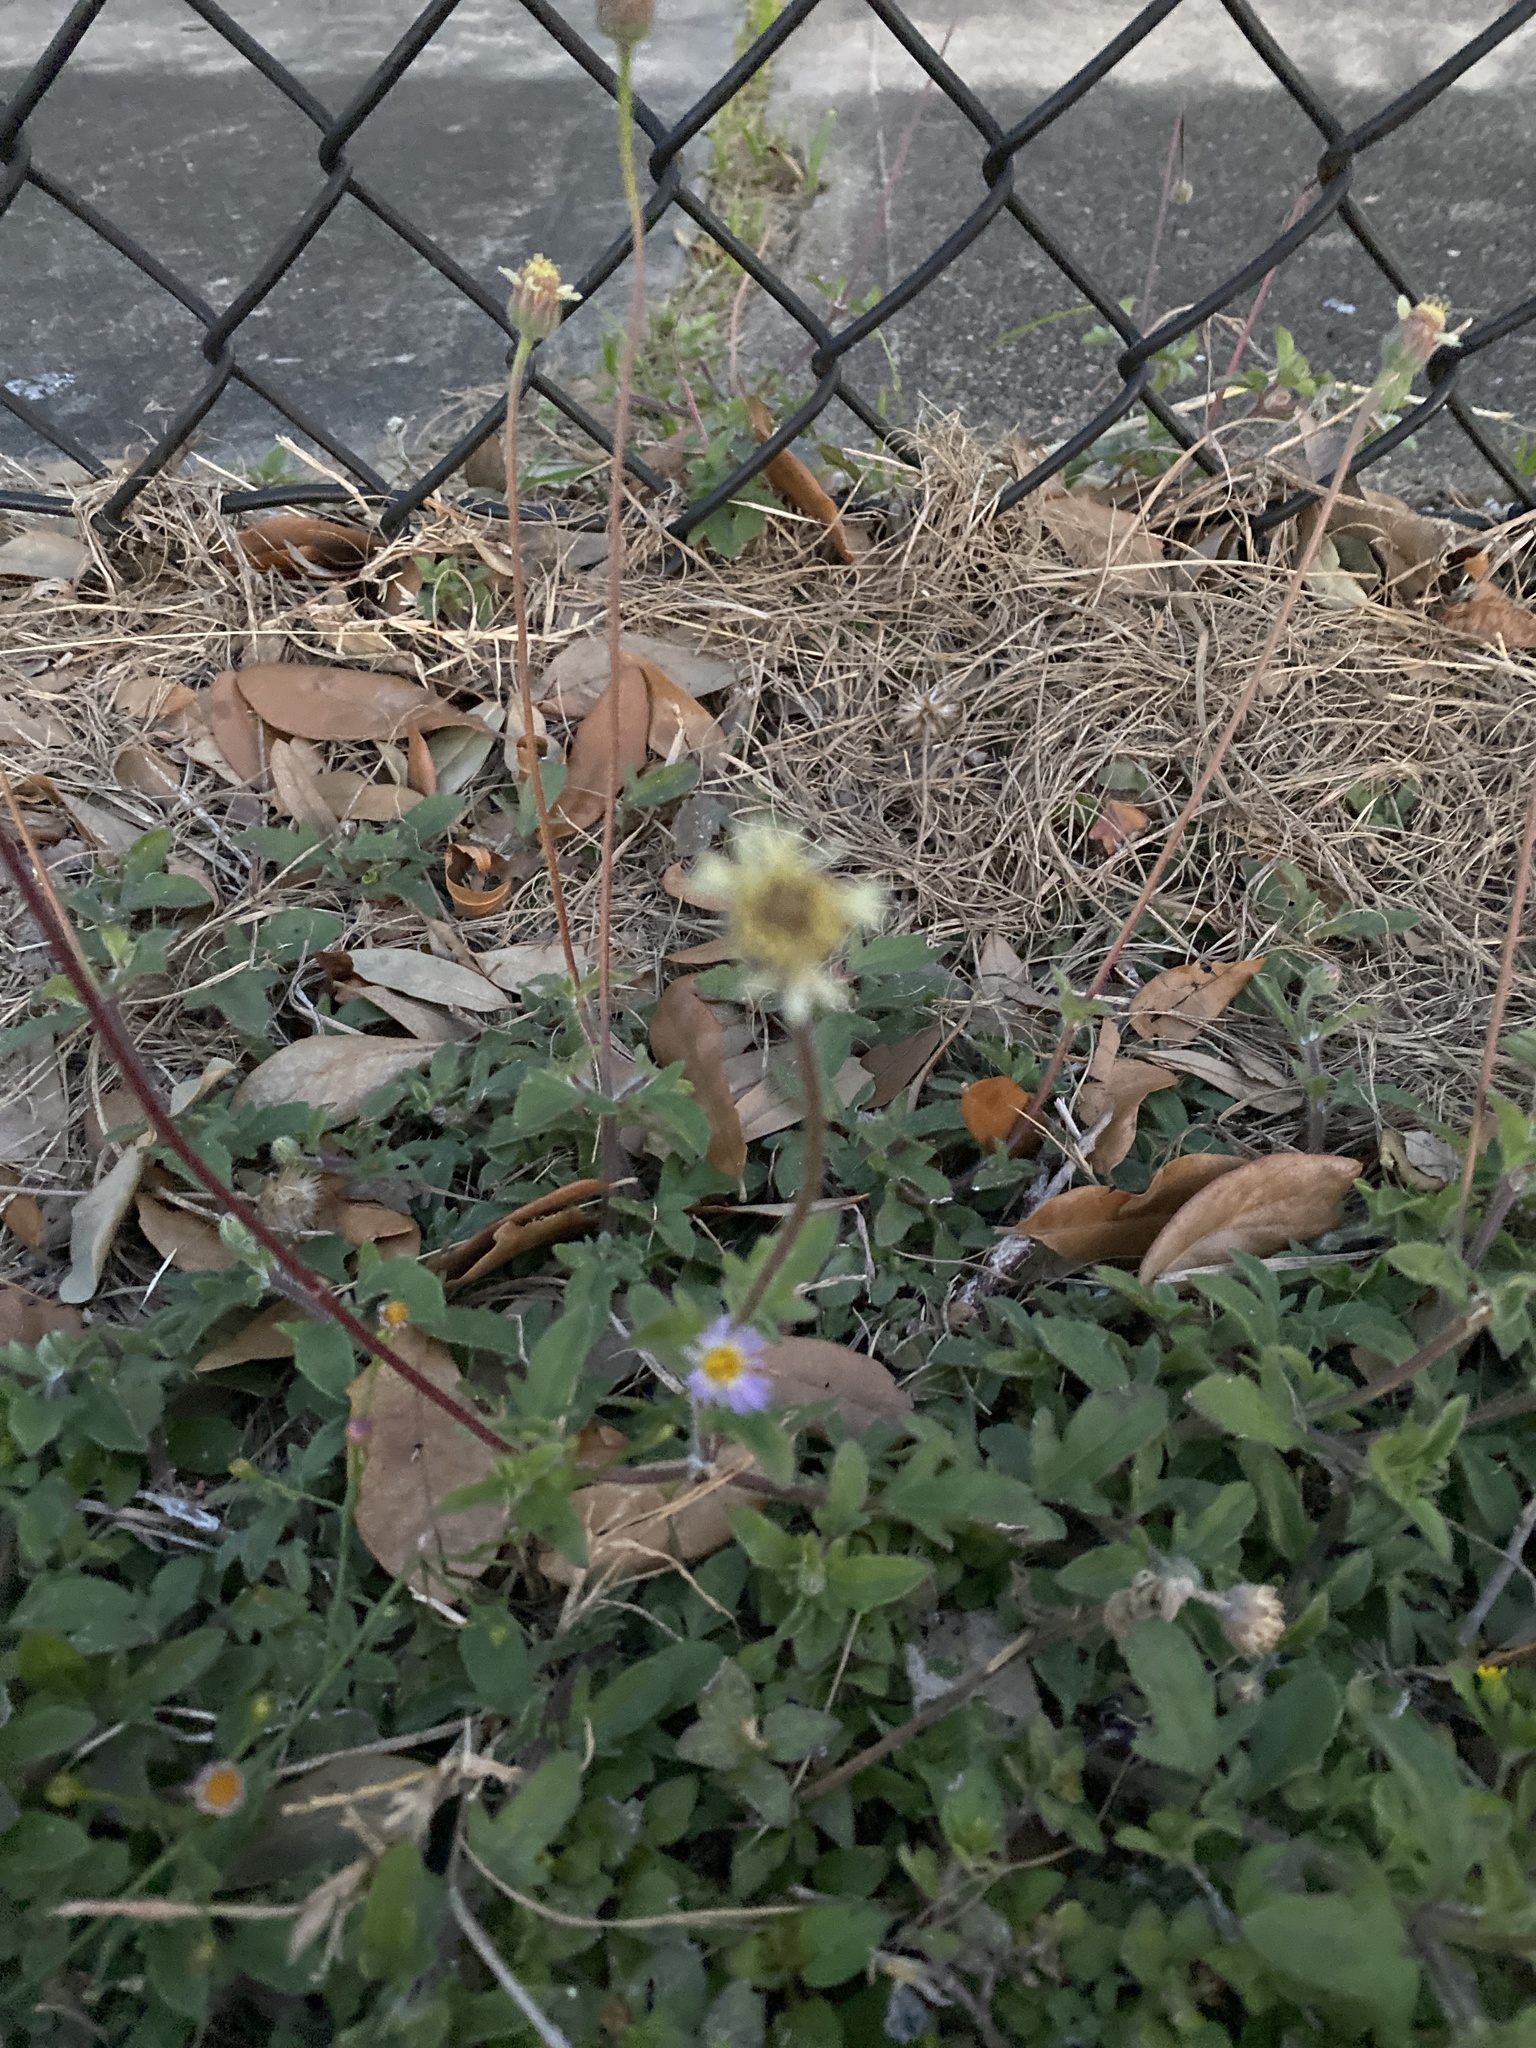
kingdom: Plantae
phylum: Tracheophyta
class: Magnoliopsida
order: Asterales
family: Asteraceae
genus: Tridax
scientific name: Tridax procumbens
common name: Coatbuttons
